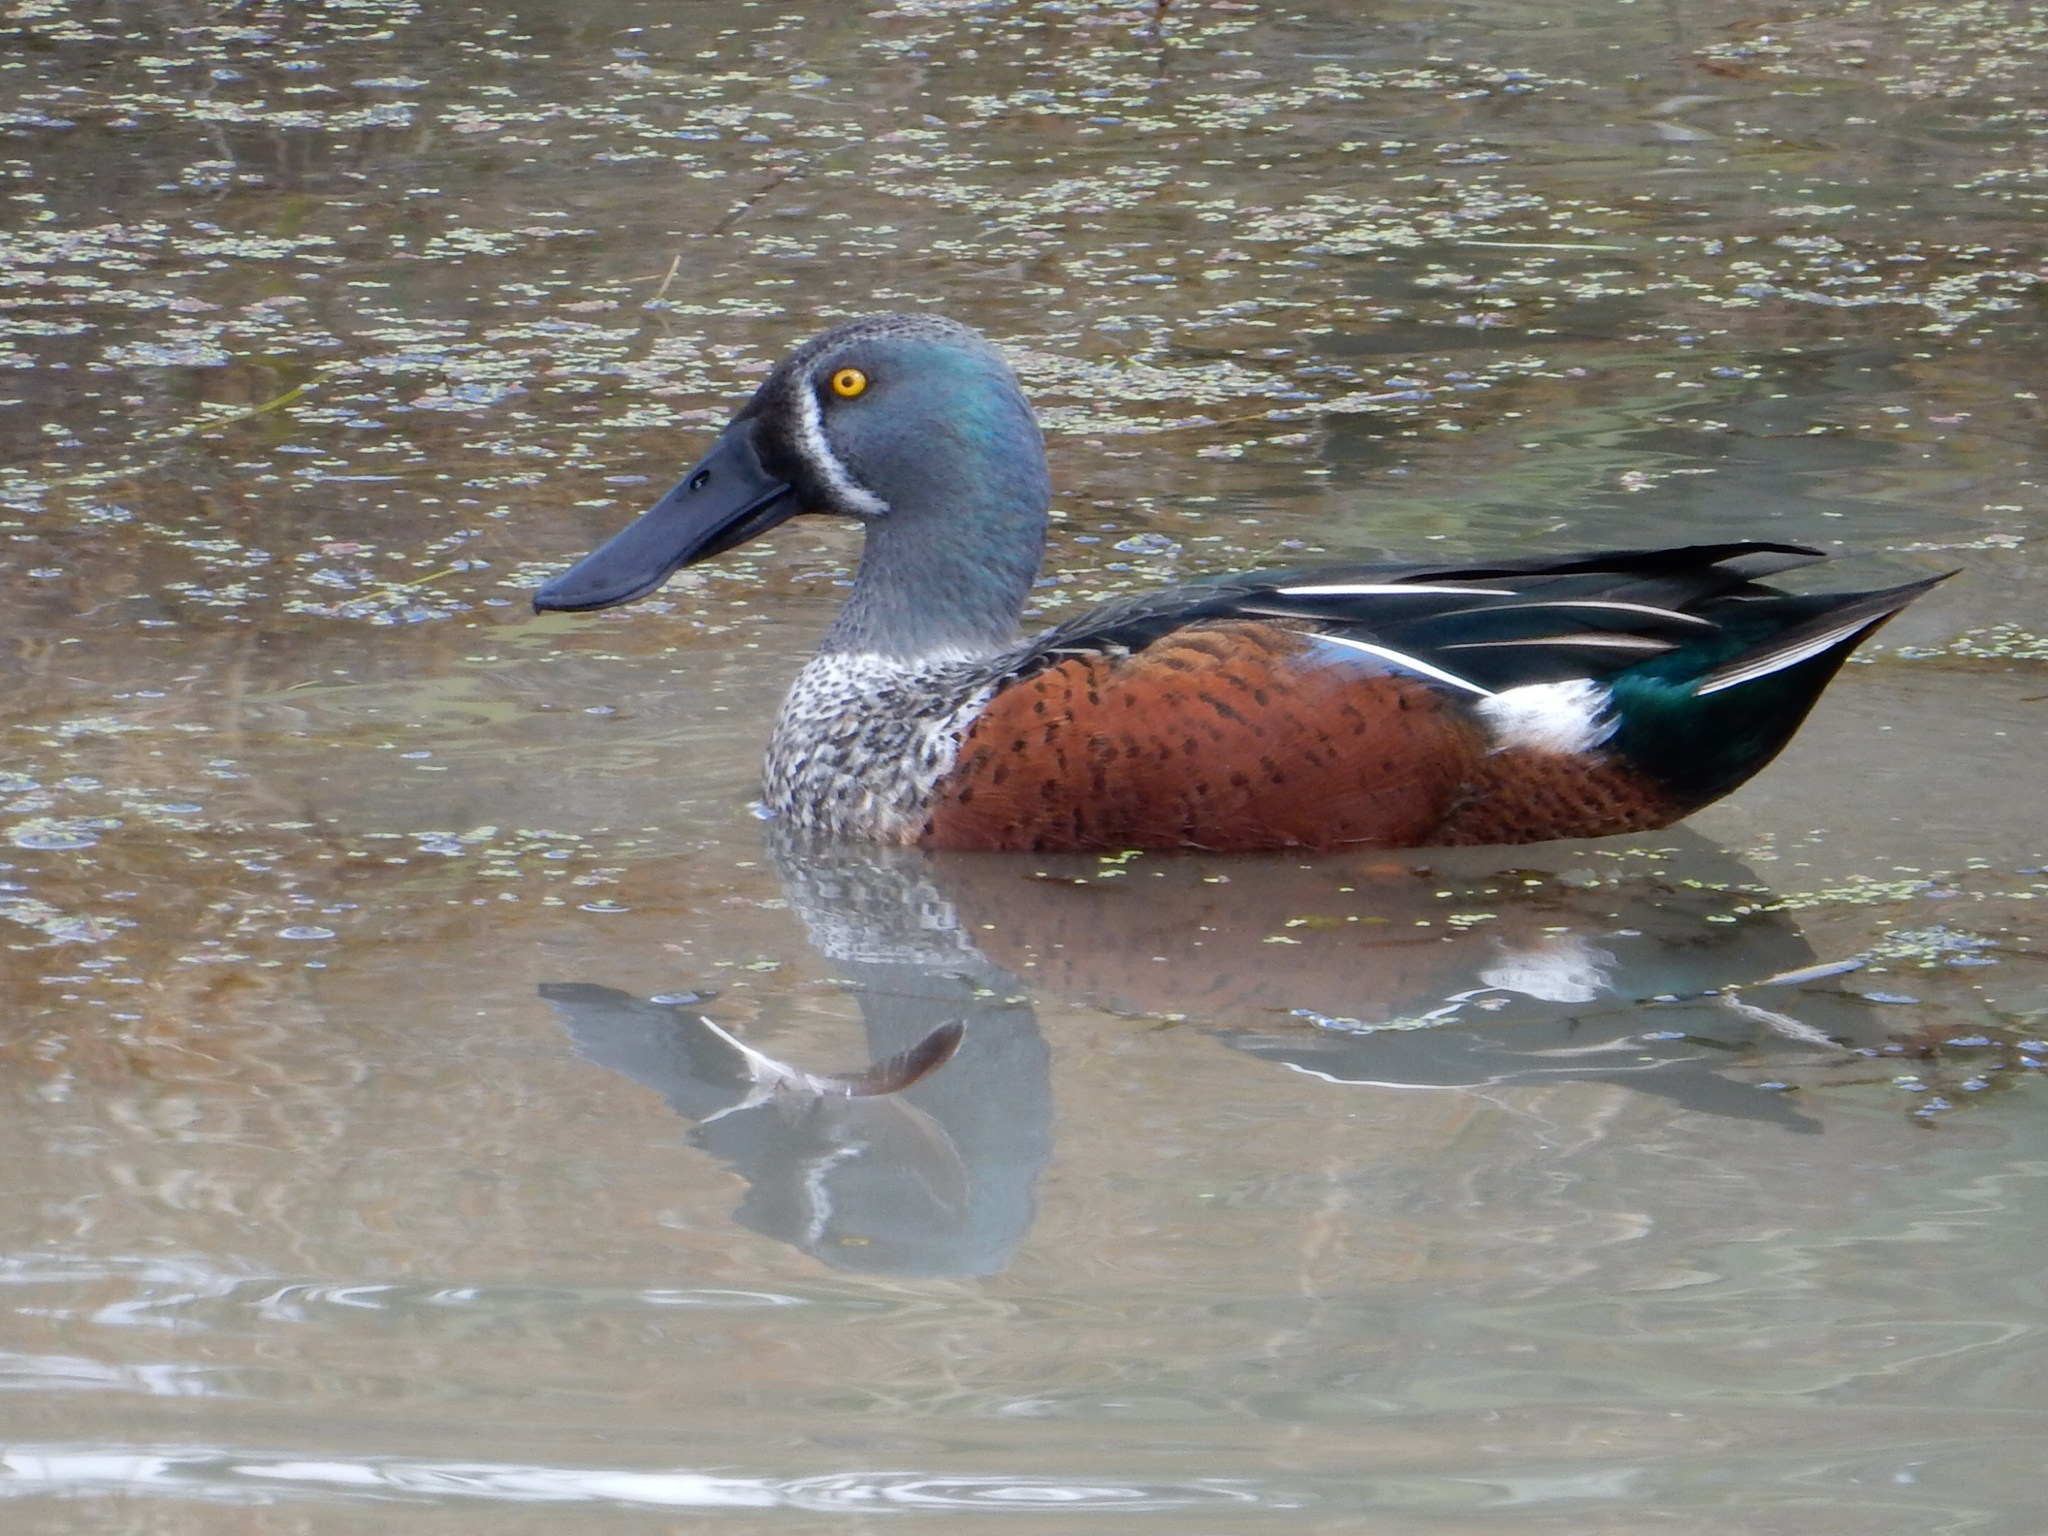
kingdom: Animalia
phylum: Chordata
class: Aves
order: Anseriformes
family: Anatidae
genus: Spatula
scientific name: Spatula rhynchotis
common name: Australian shoveler
